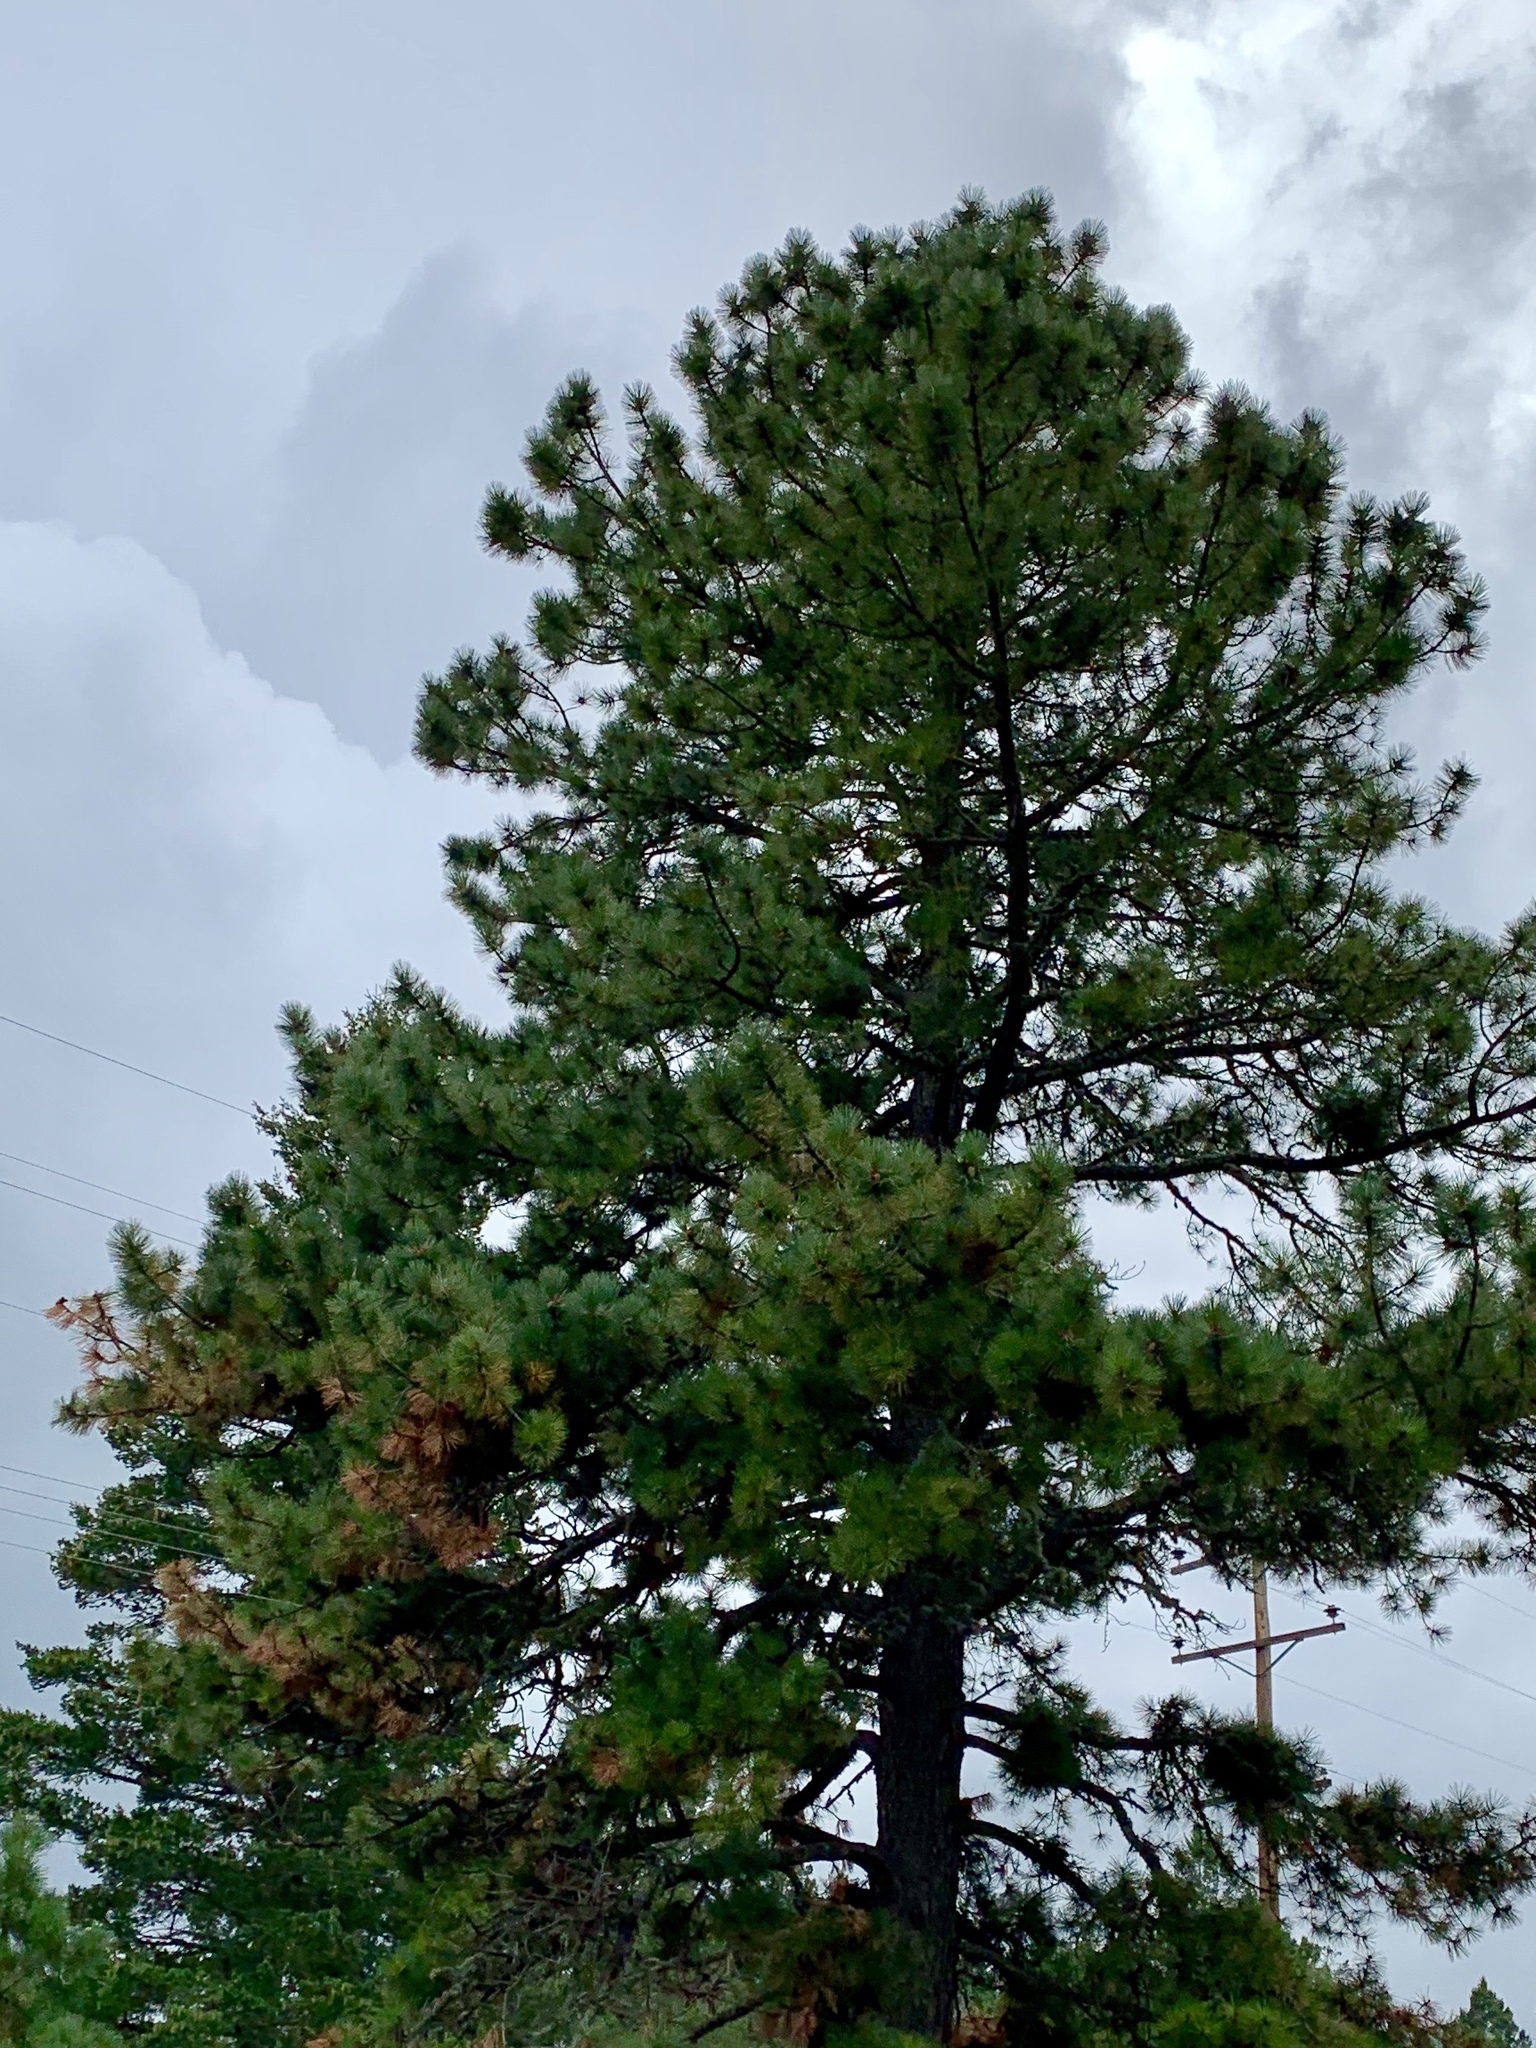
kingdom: Plantae
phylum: Tracheophyta
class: Pinopsida
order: Pinales
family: Pinaceae
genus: Pinus
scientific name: Pinus ponderosa
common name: Western yellow-pine
